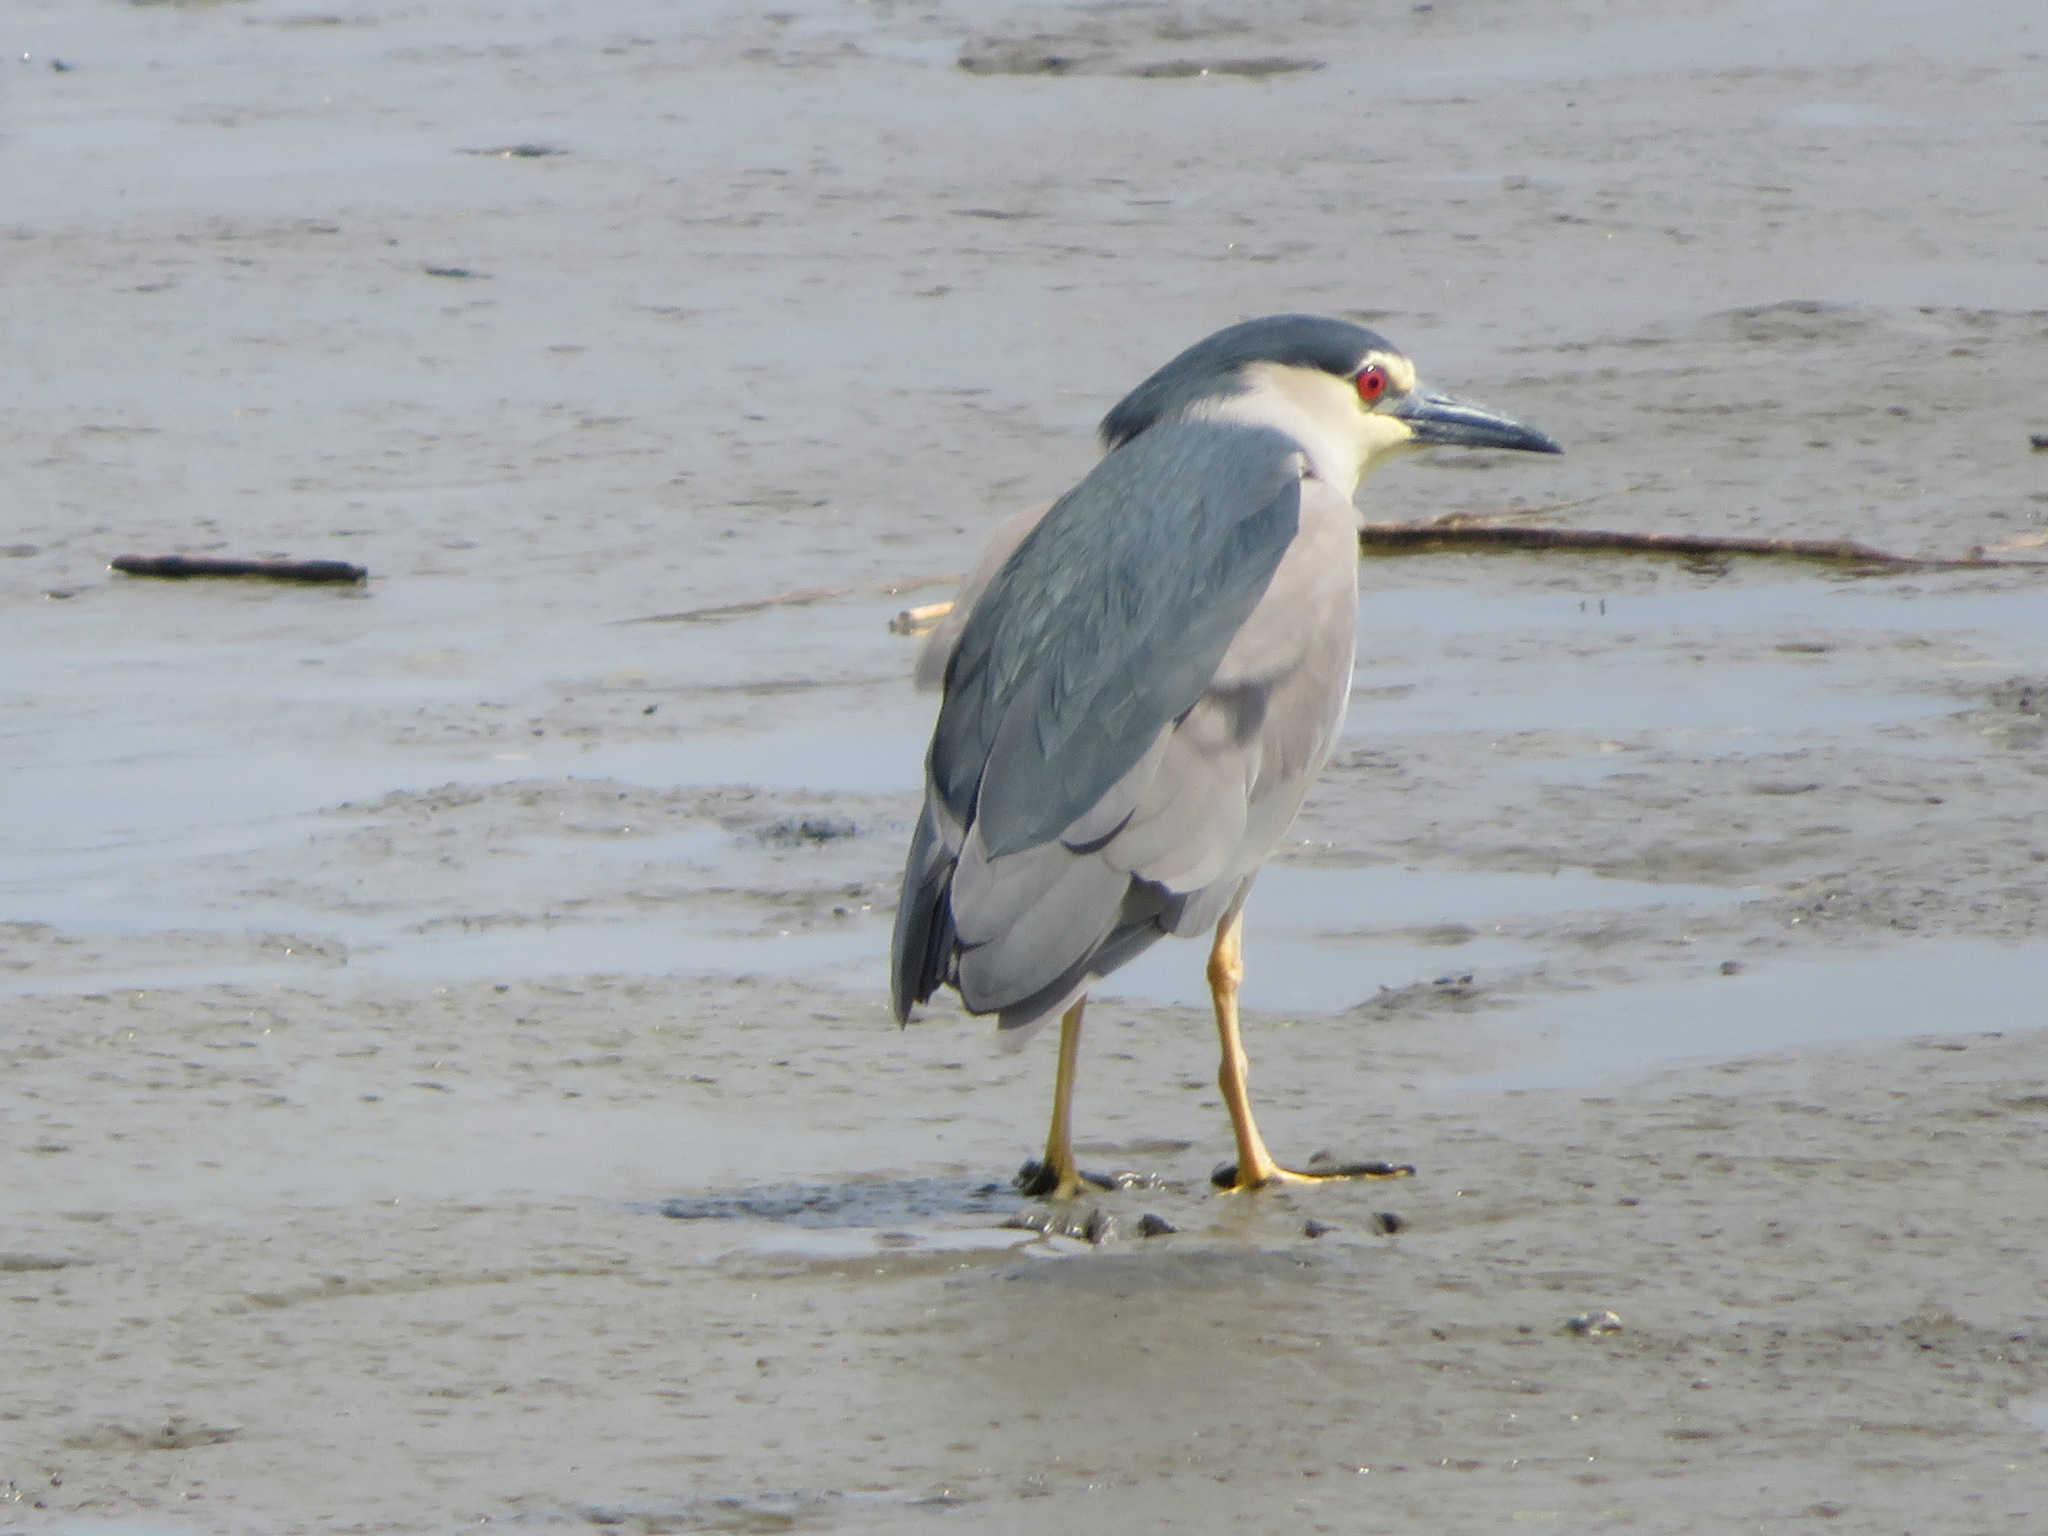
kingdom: Animalia
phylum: Chordata
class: Aves
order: Pelecaniformes
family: Ardeidae
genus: Nycticorax
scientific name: Nycticorax nycticorax
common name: Black-crowned night heron
